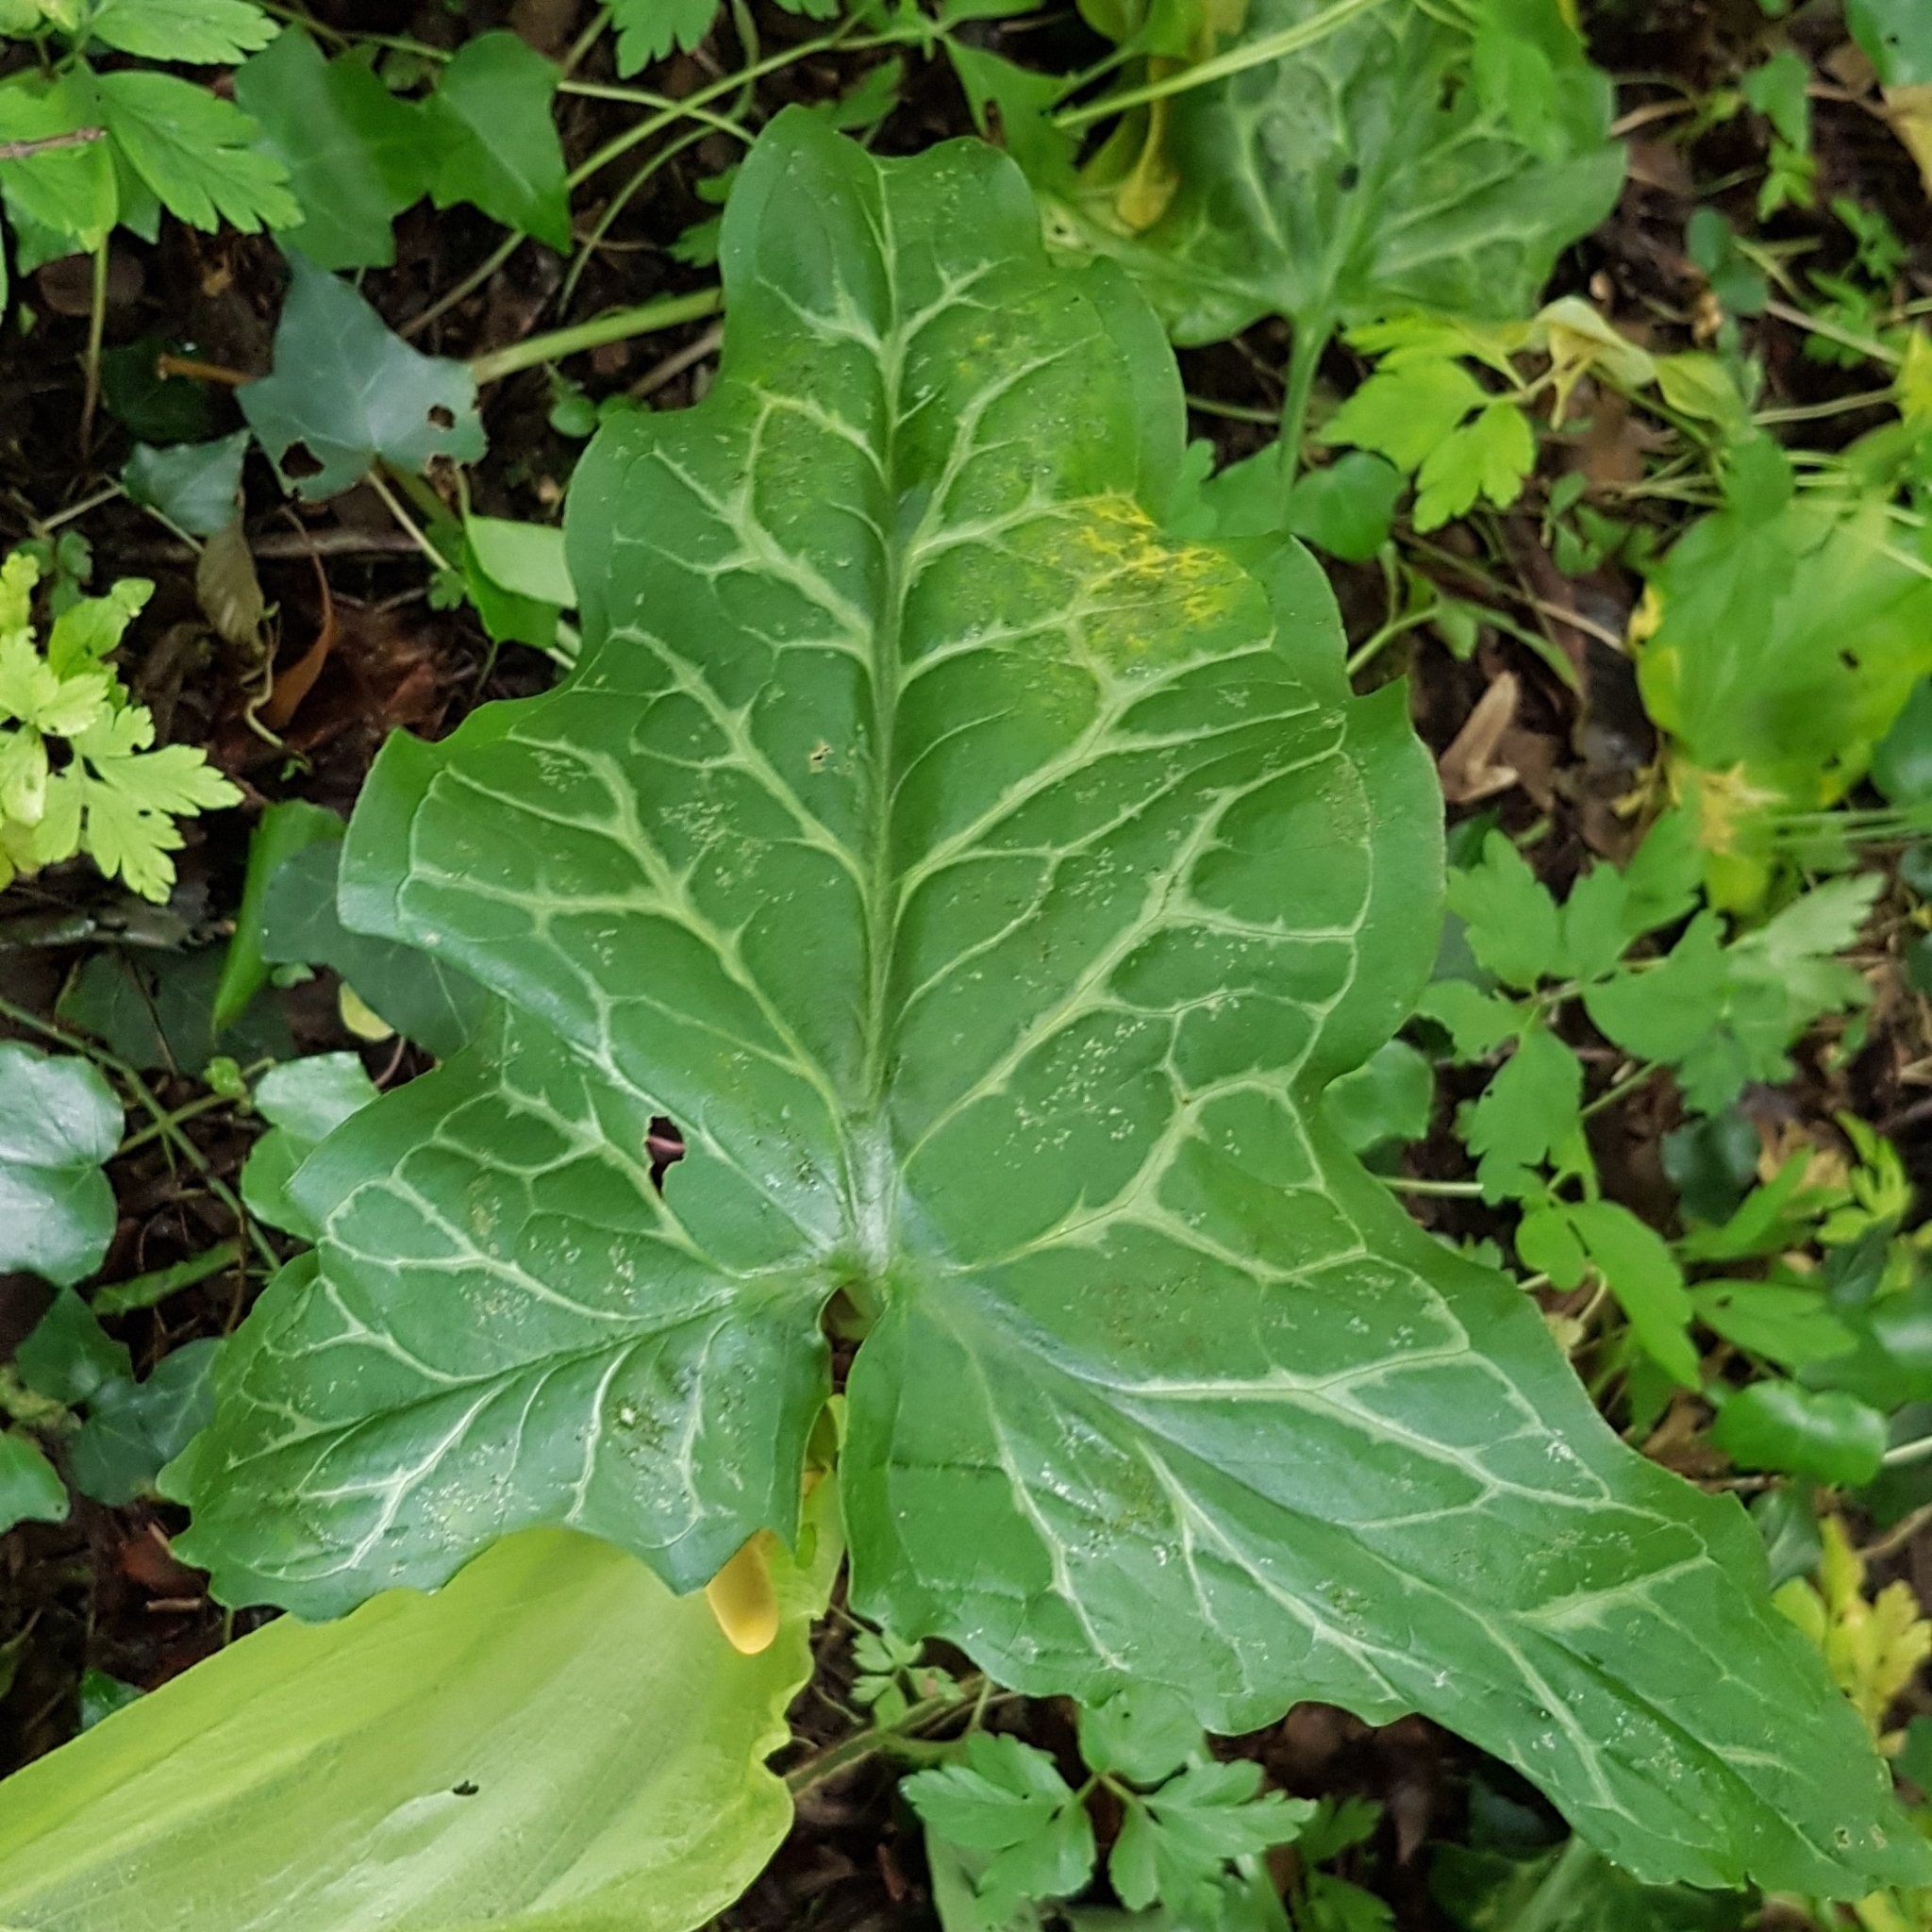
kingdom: Plantae
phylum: Tracheophyta
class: Liliopsida
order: Alismatales
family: Araceae
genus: Arum
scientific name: Arum italicum
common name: Italian lords-and-ladies
